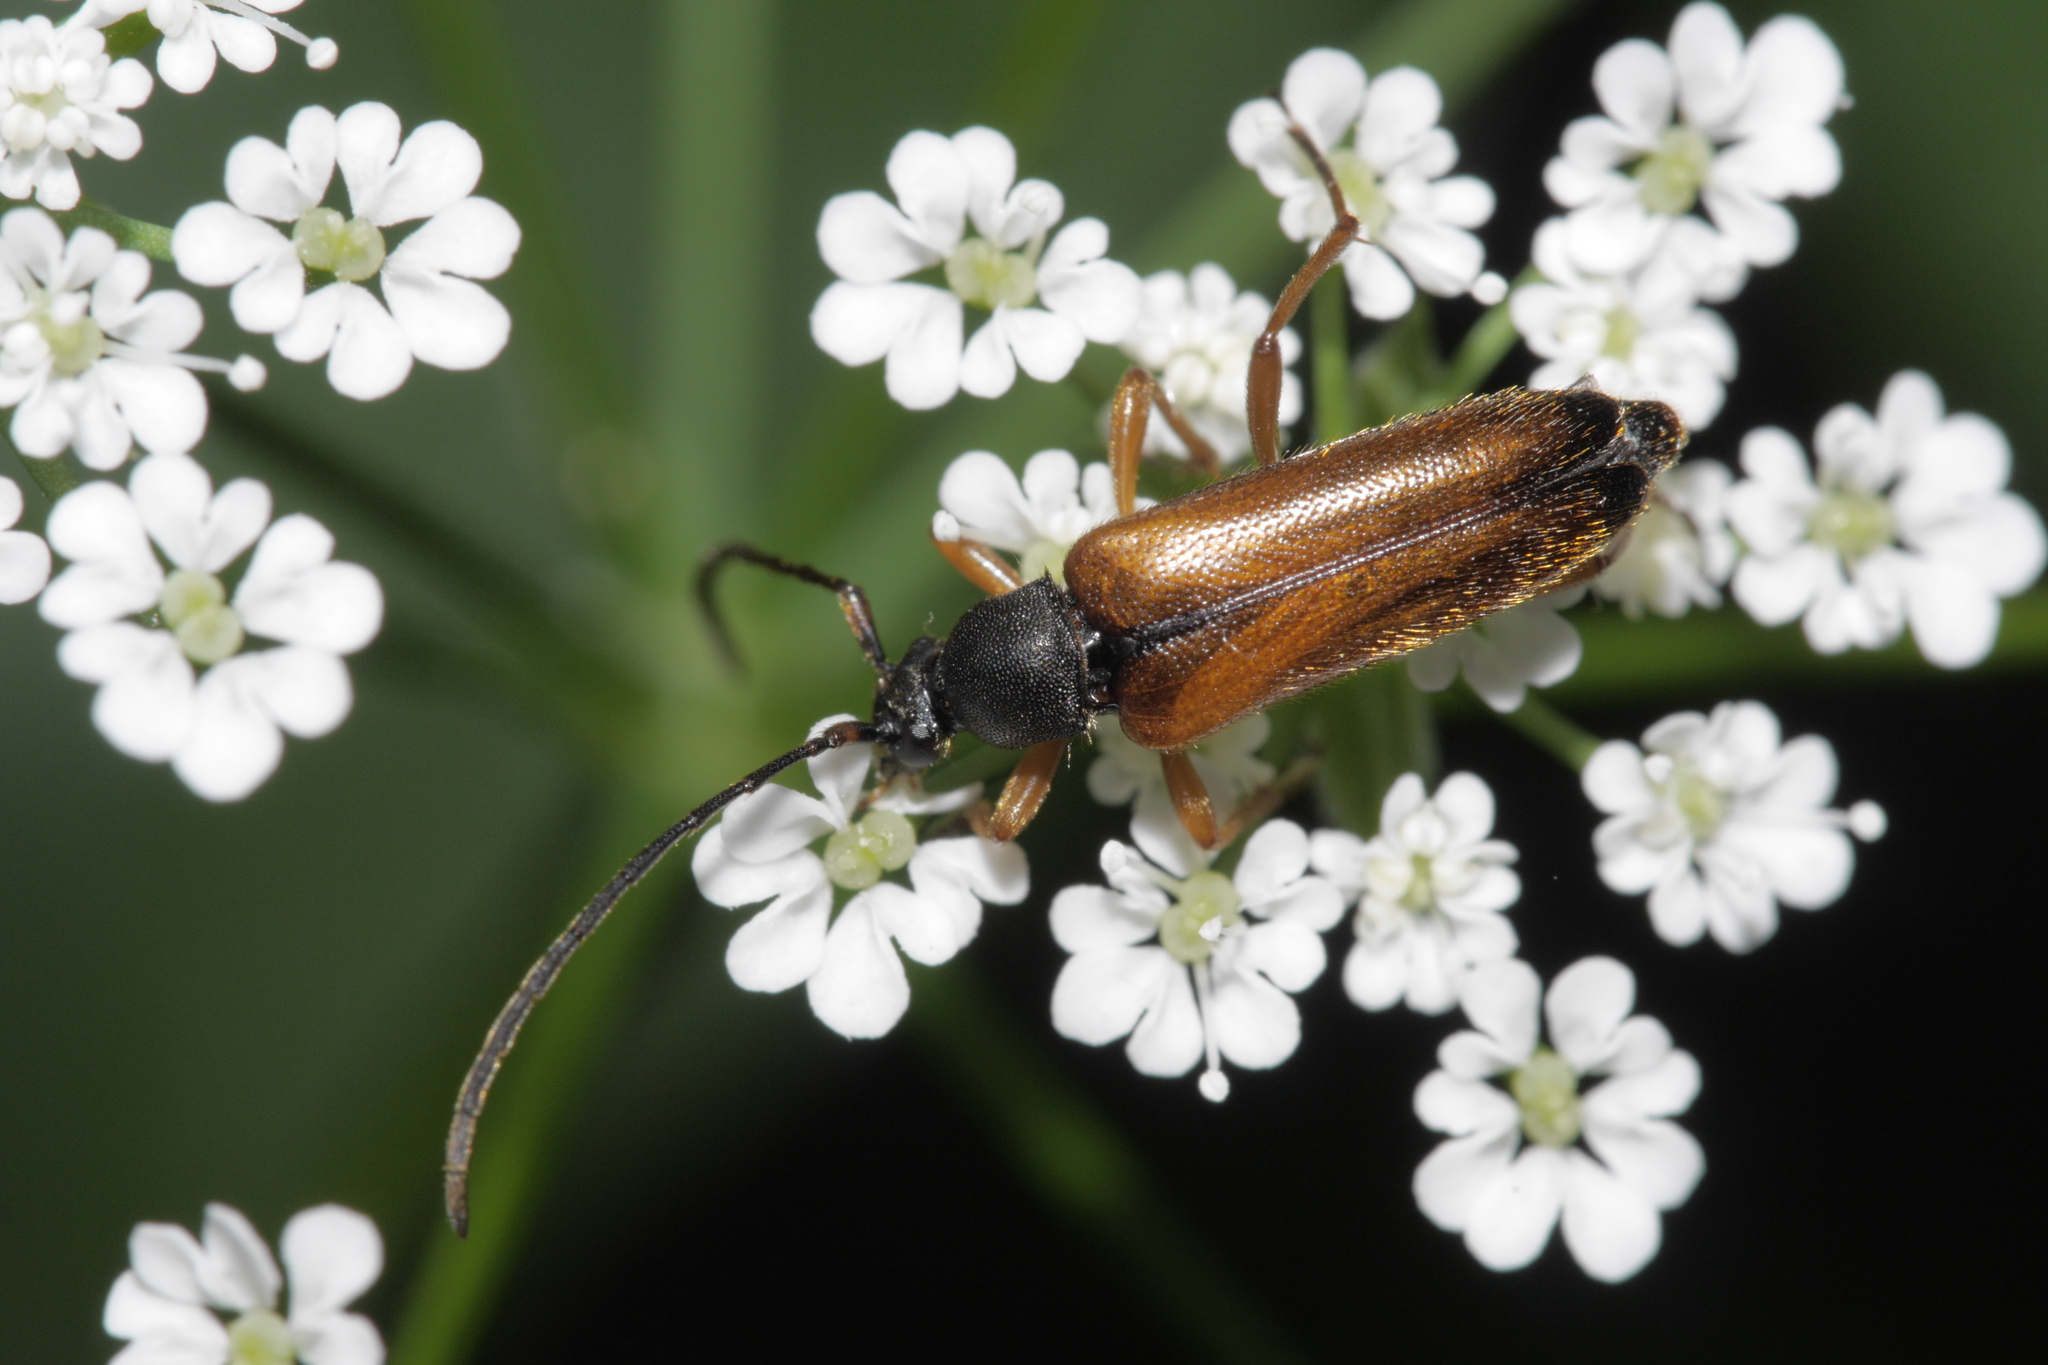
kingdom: Animalia
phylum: Arthropoda
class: Insecta
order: Coleoptera
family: Cerambycidae
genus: Alosterna
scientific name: Alosterna tabacicolor
